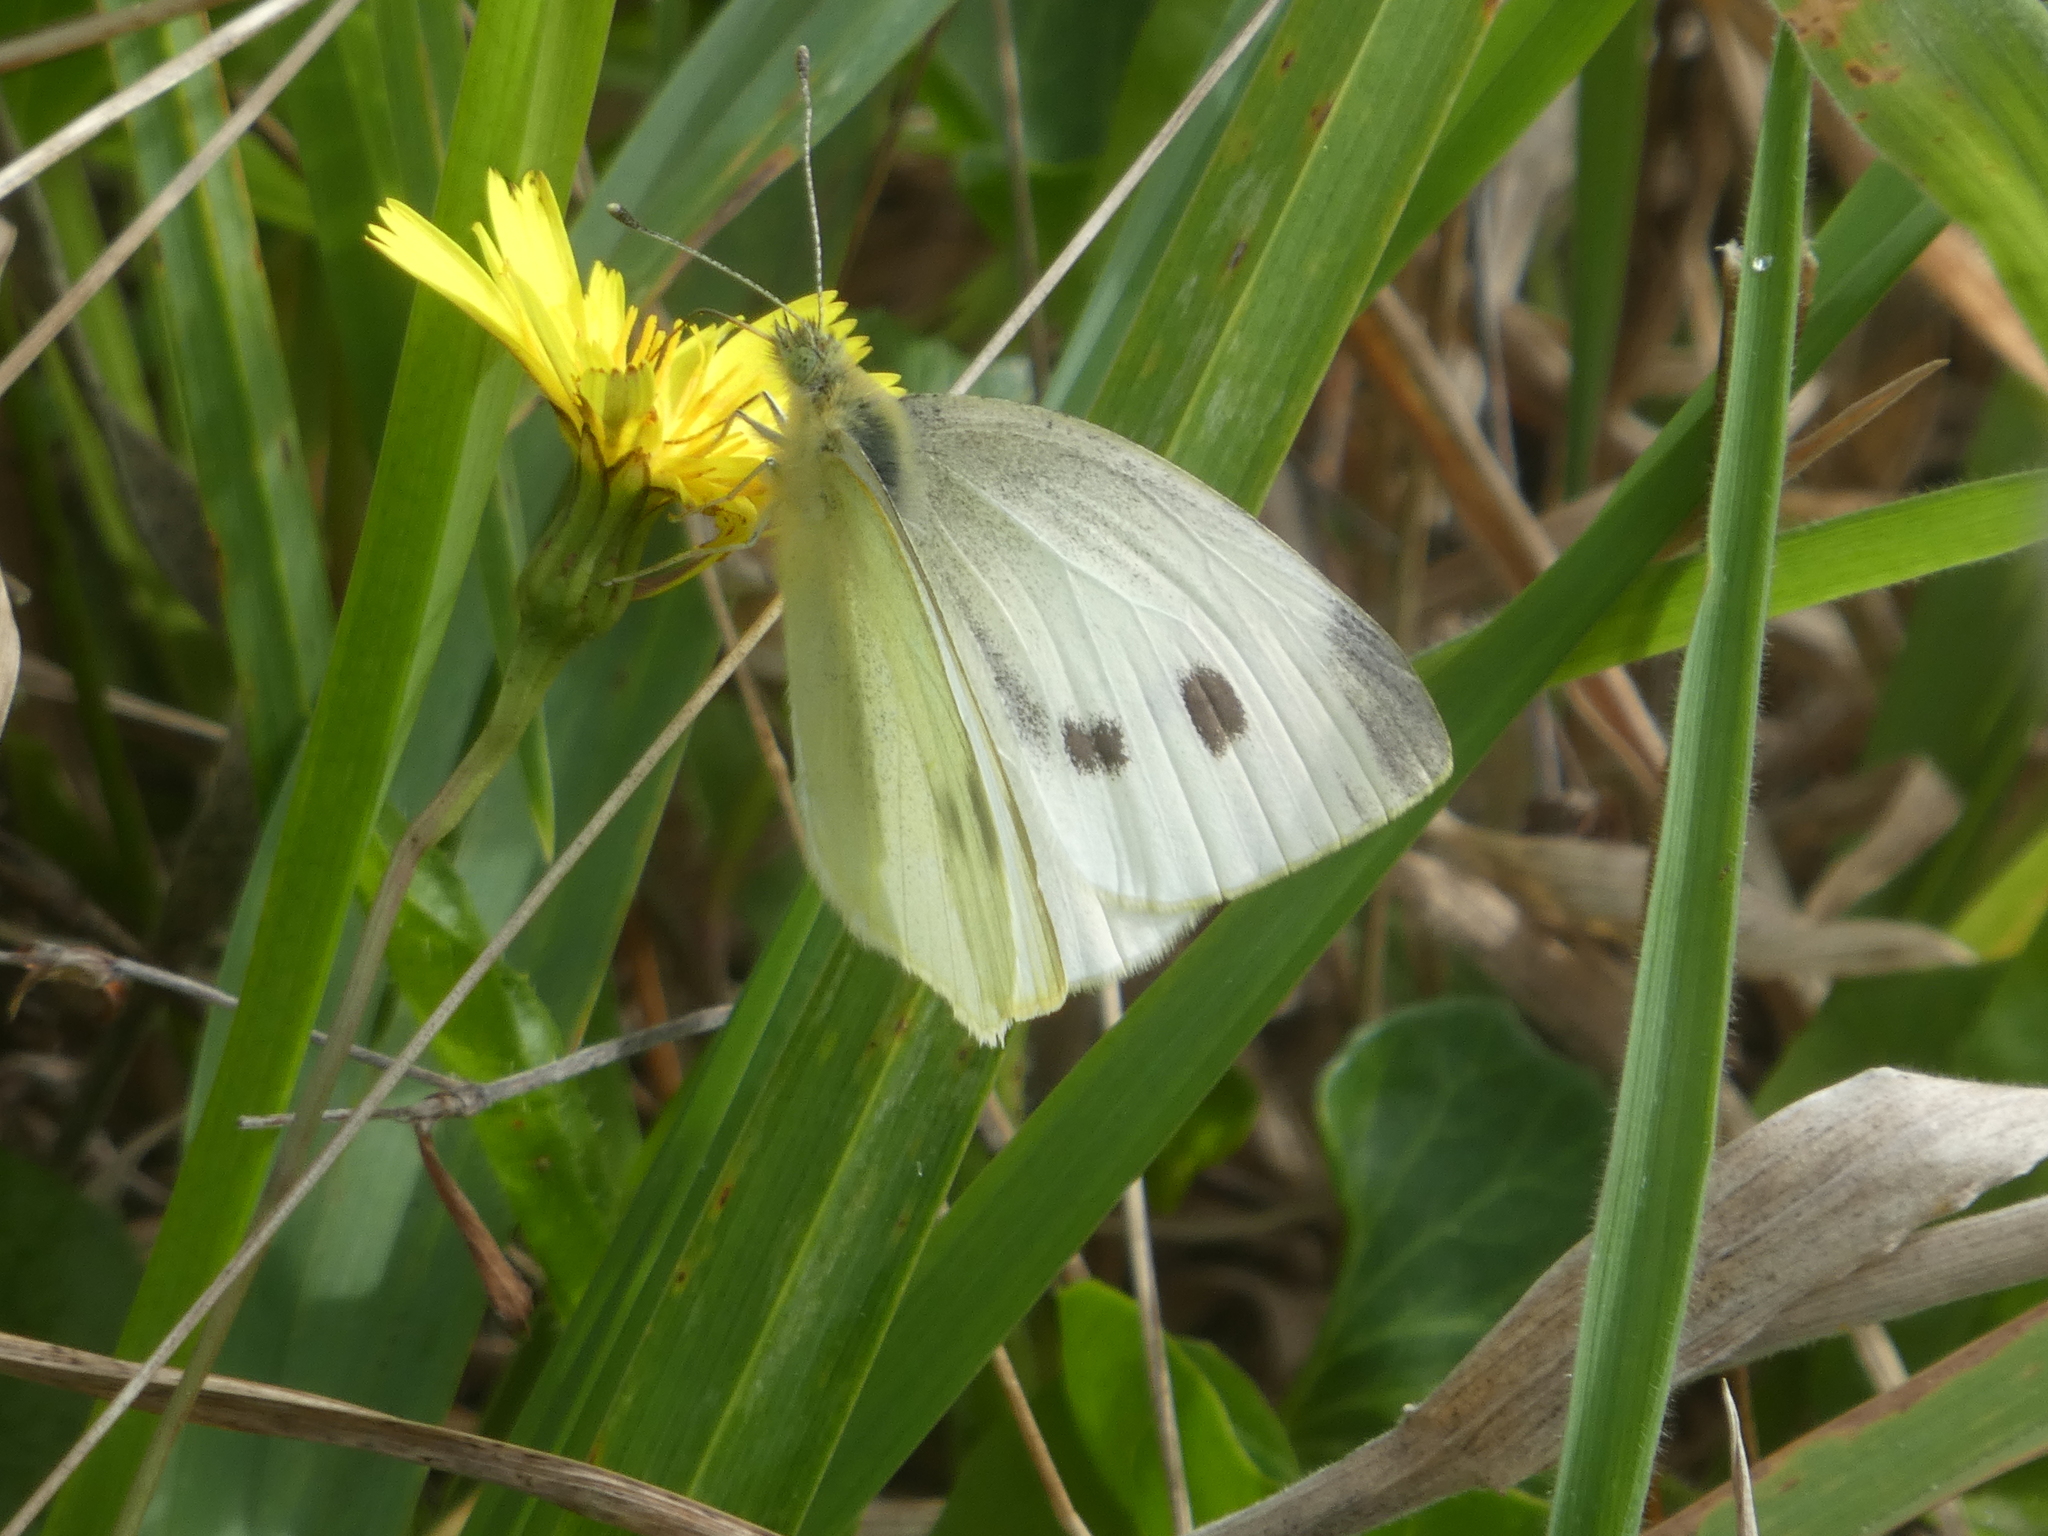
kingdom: Animalia
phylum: Arthropoda
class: Insecta
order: Lepidoptera
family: Pieridae
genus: Pieris
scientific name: Pieris rapae
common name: Small white
